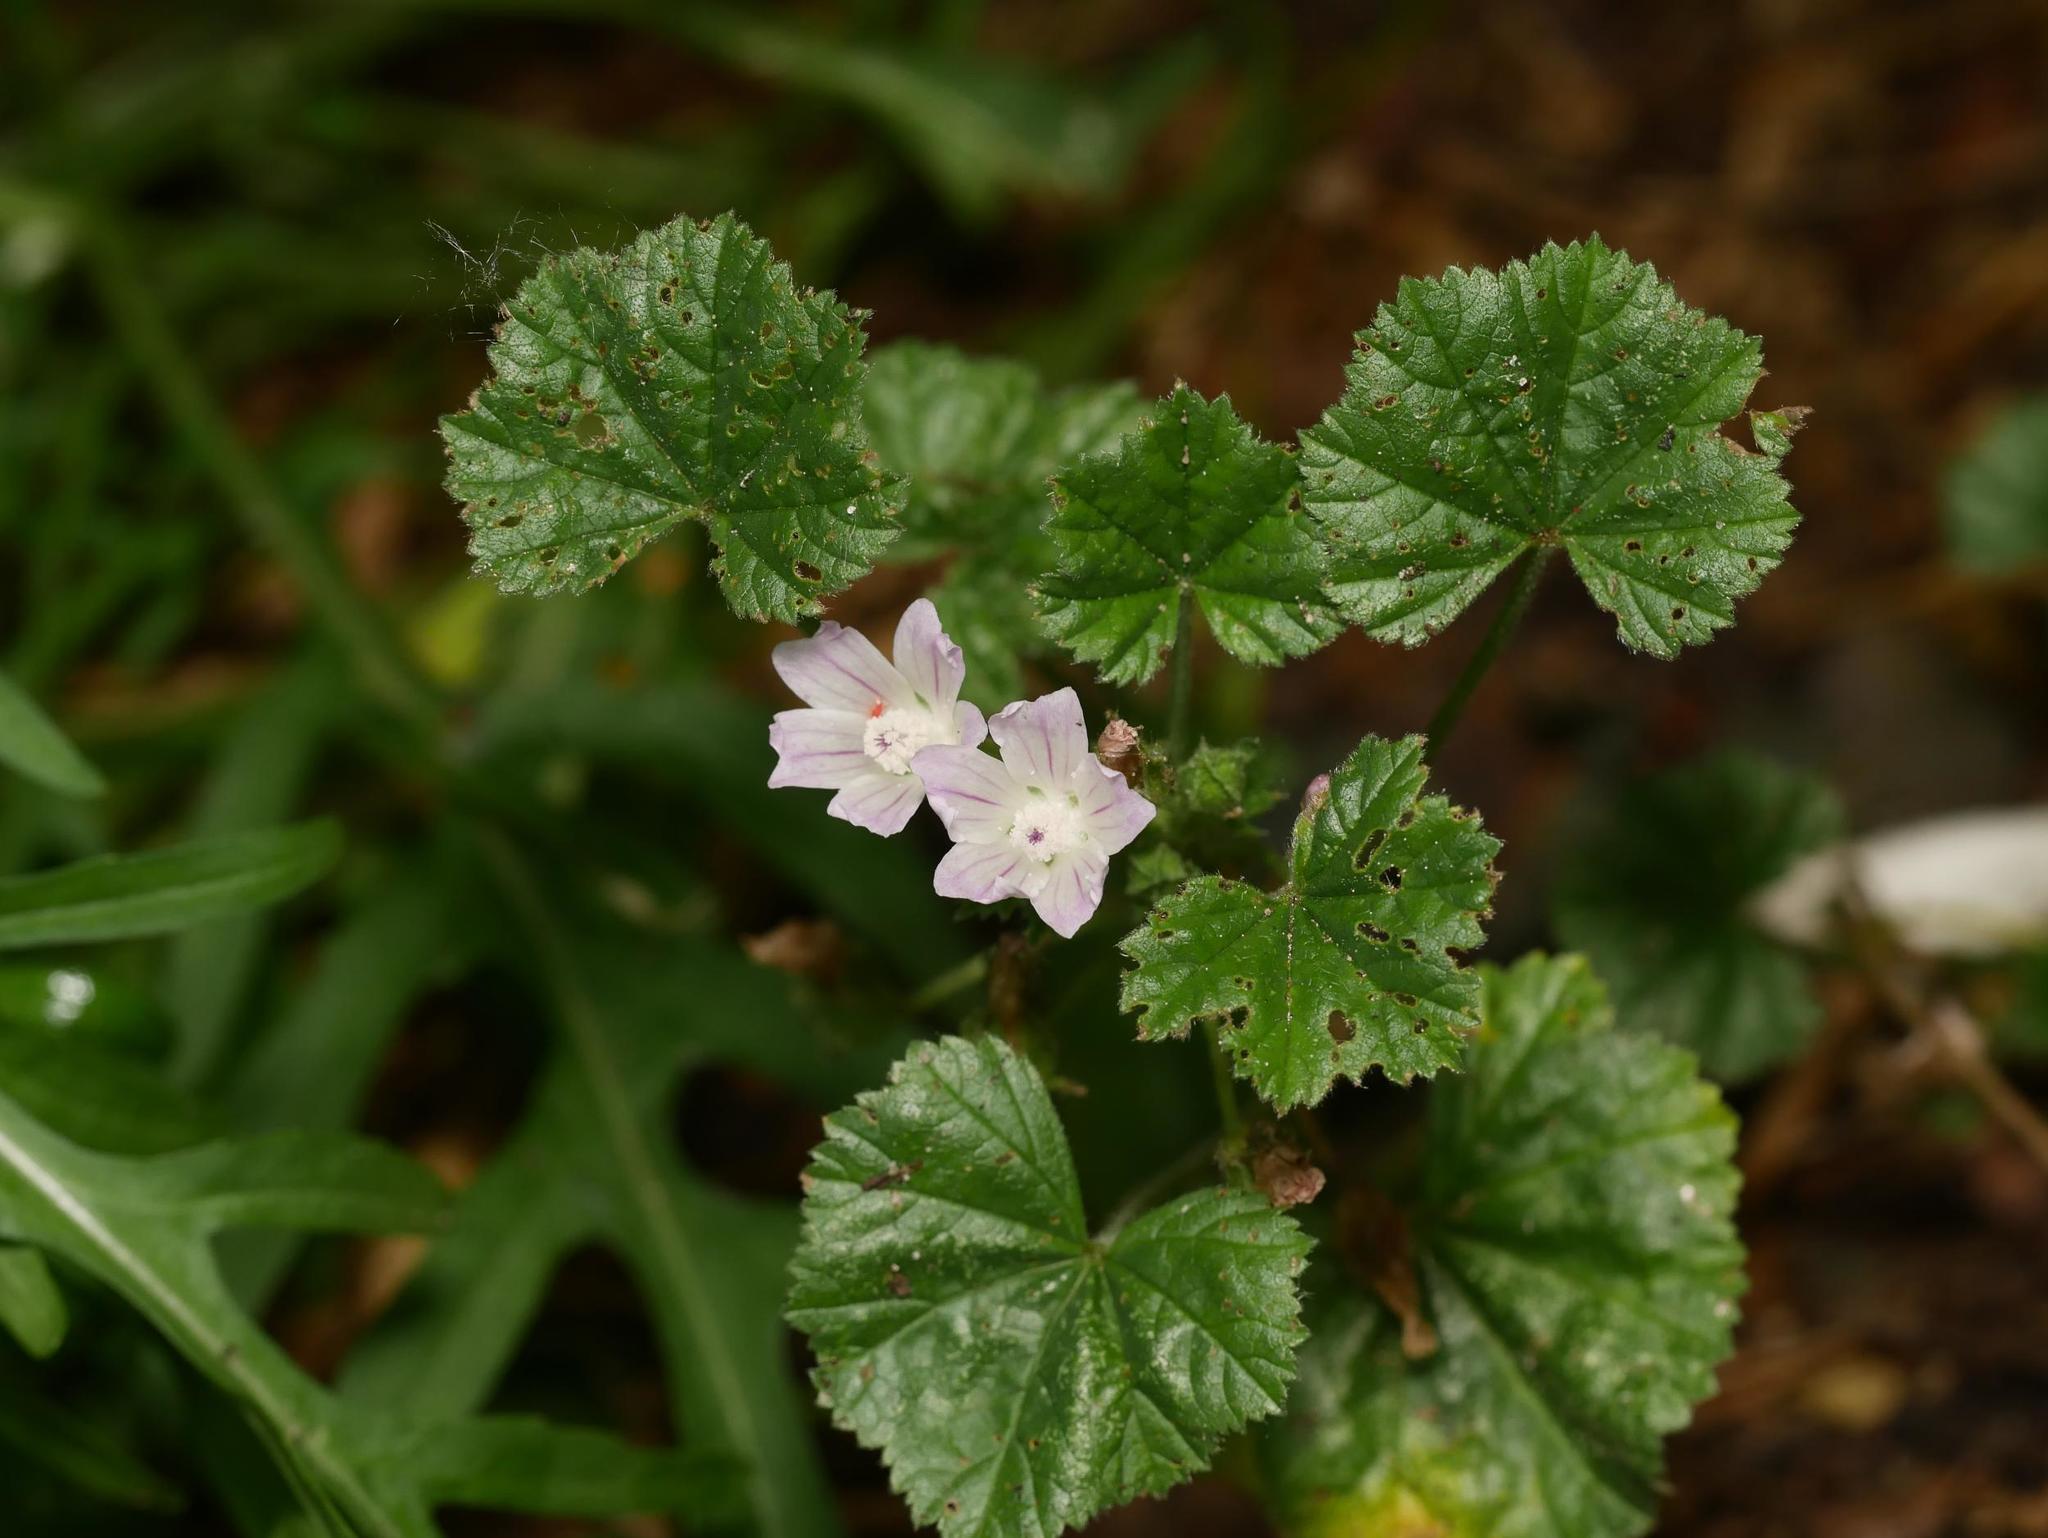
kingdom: Plantae
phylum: Tracheophyta
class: Magnoliopsida
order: Malvales
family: Malvaceae
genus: Malva
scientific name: Malva neglecta
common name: Common mallow
